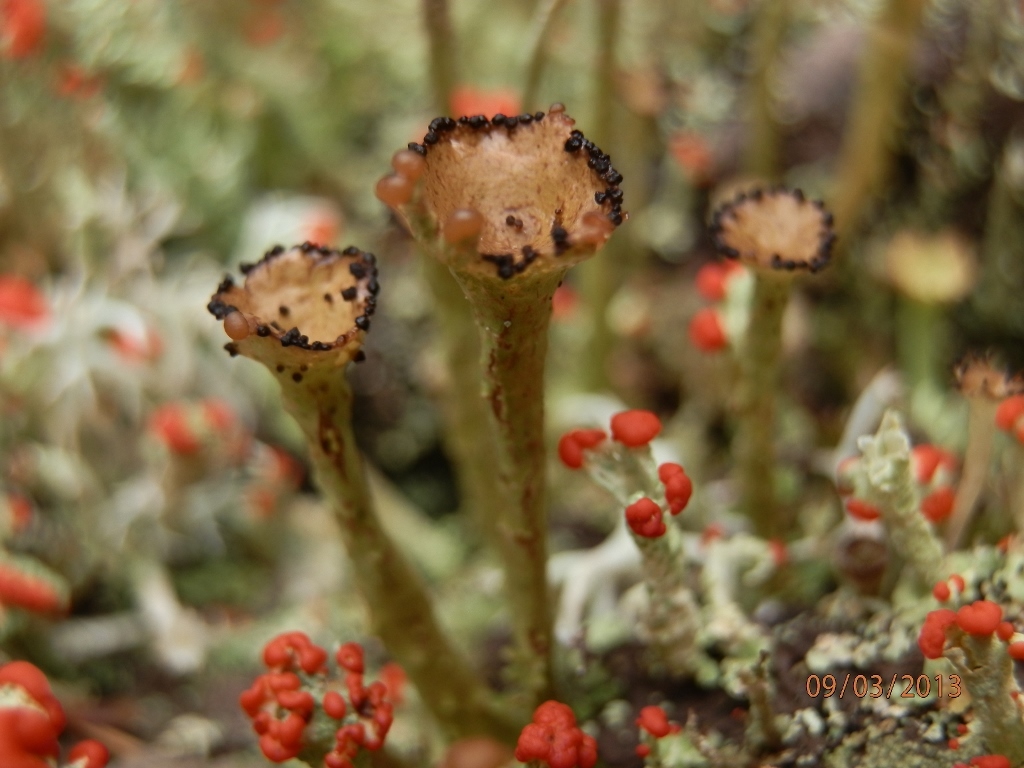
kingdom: Fungi
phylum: Ascomycota
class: Lecanoromycetes
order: Lecanorales
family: Cladoniaceae
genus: Cladonia
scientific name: Cladonia gracilis
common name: Smooth clad lichen
